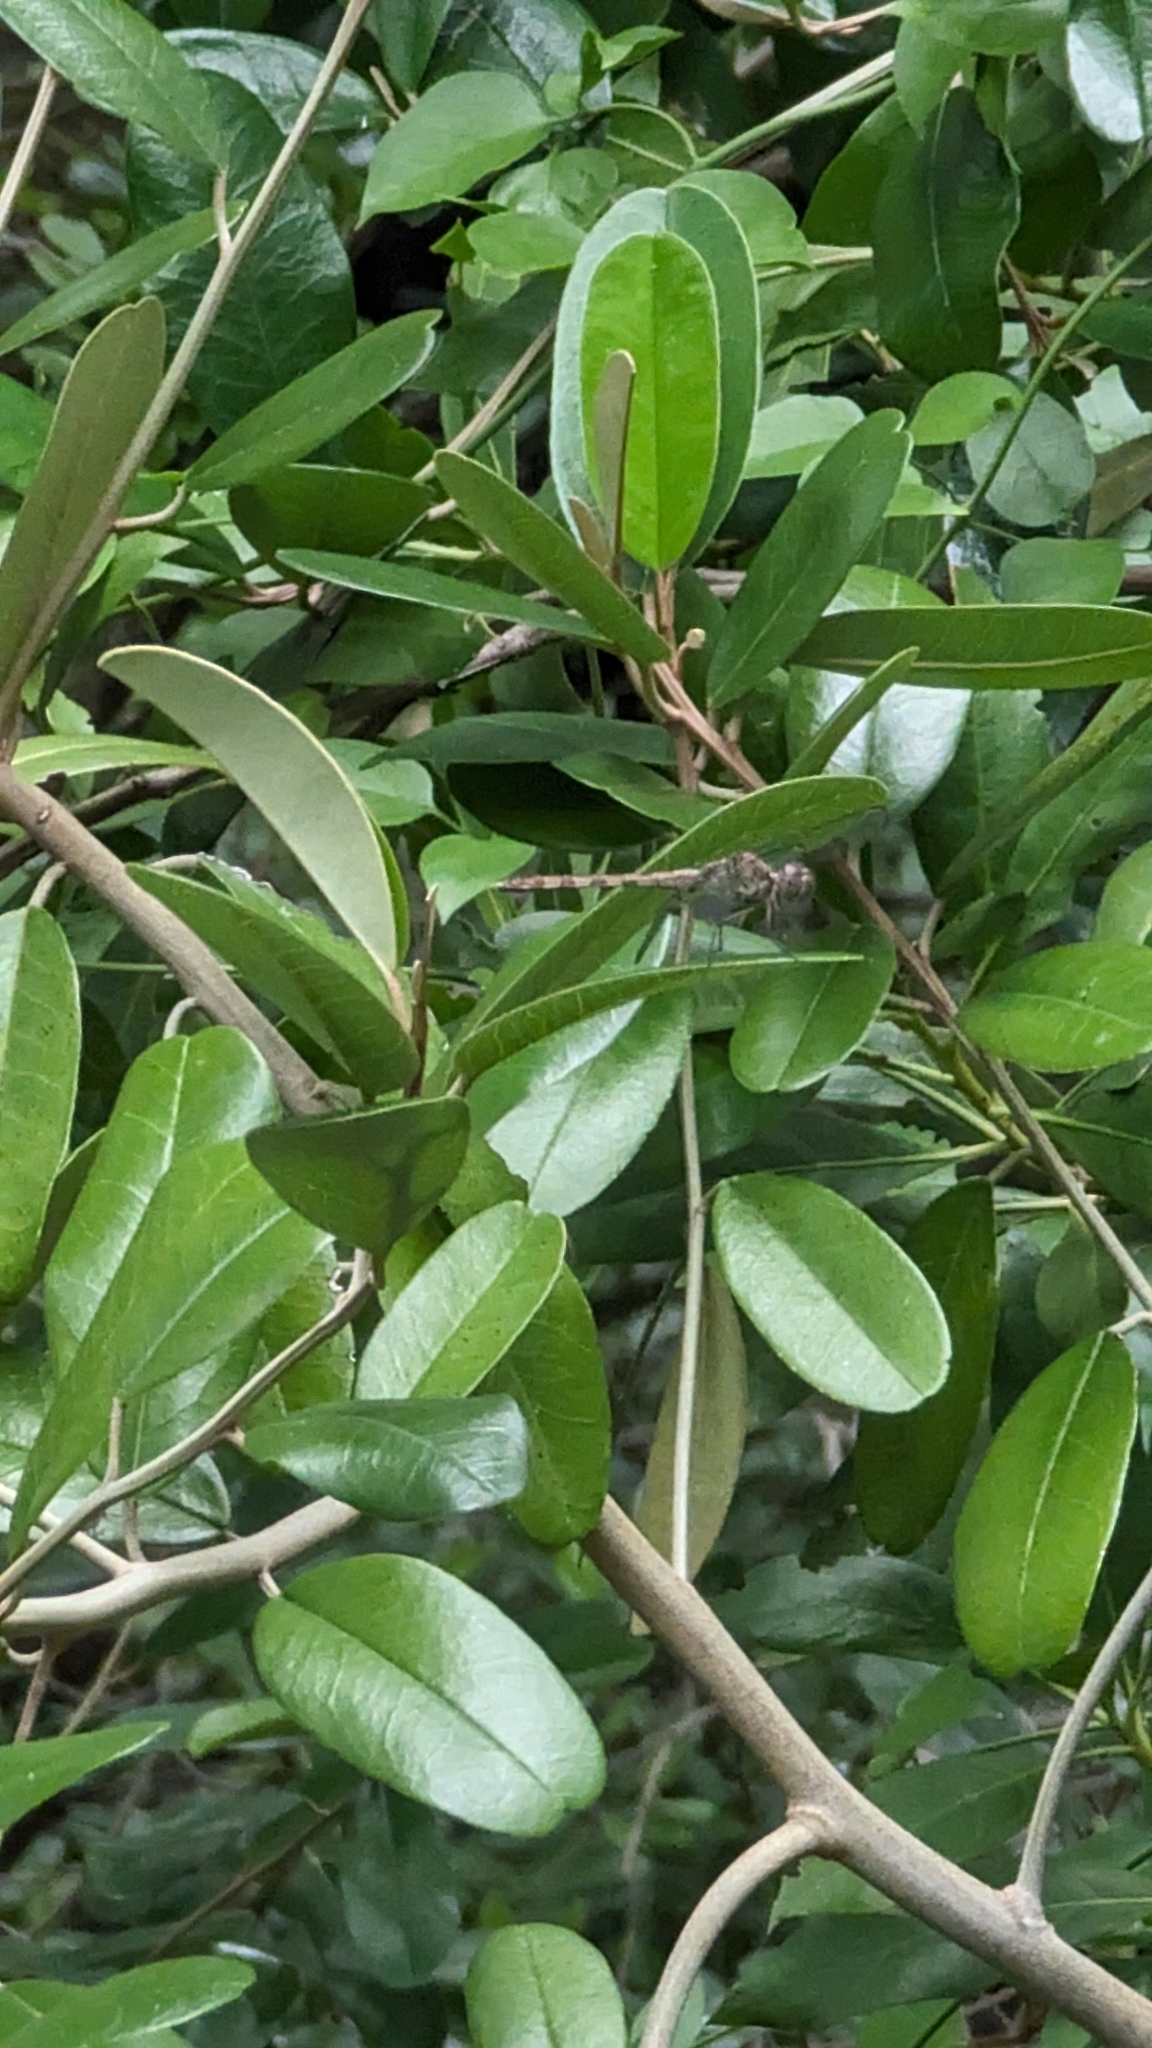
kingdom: Animalia
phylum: Arthropoda
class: Insecta
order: Odonata
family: Libellulidae
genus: Erythrodiplax
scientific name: Erythrodiplax umbrata
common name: Band-winged dragonlet
